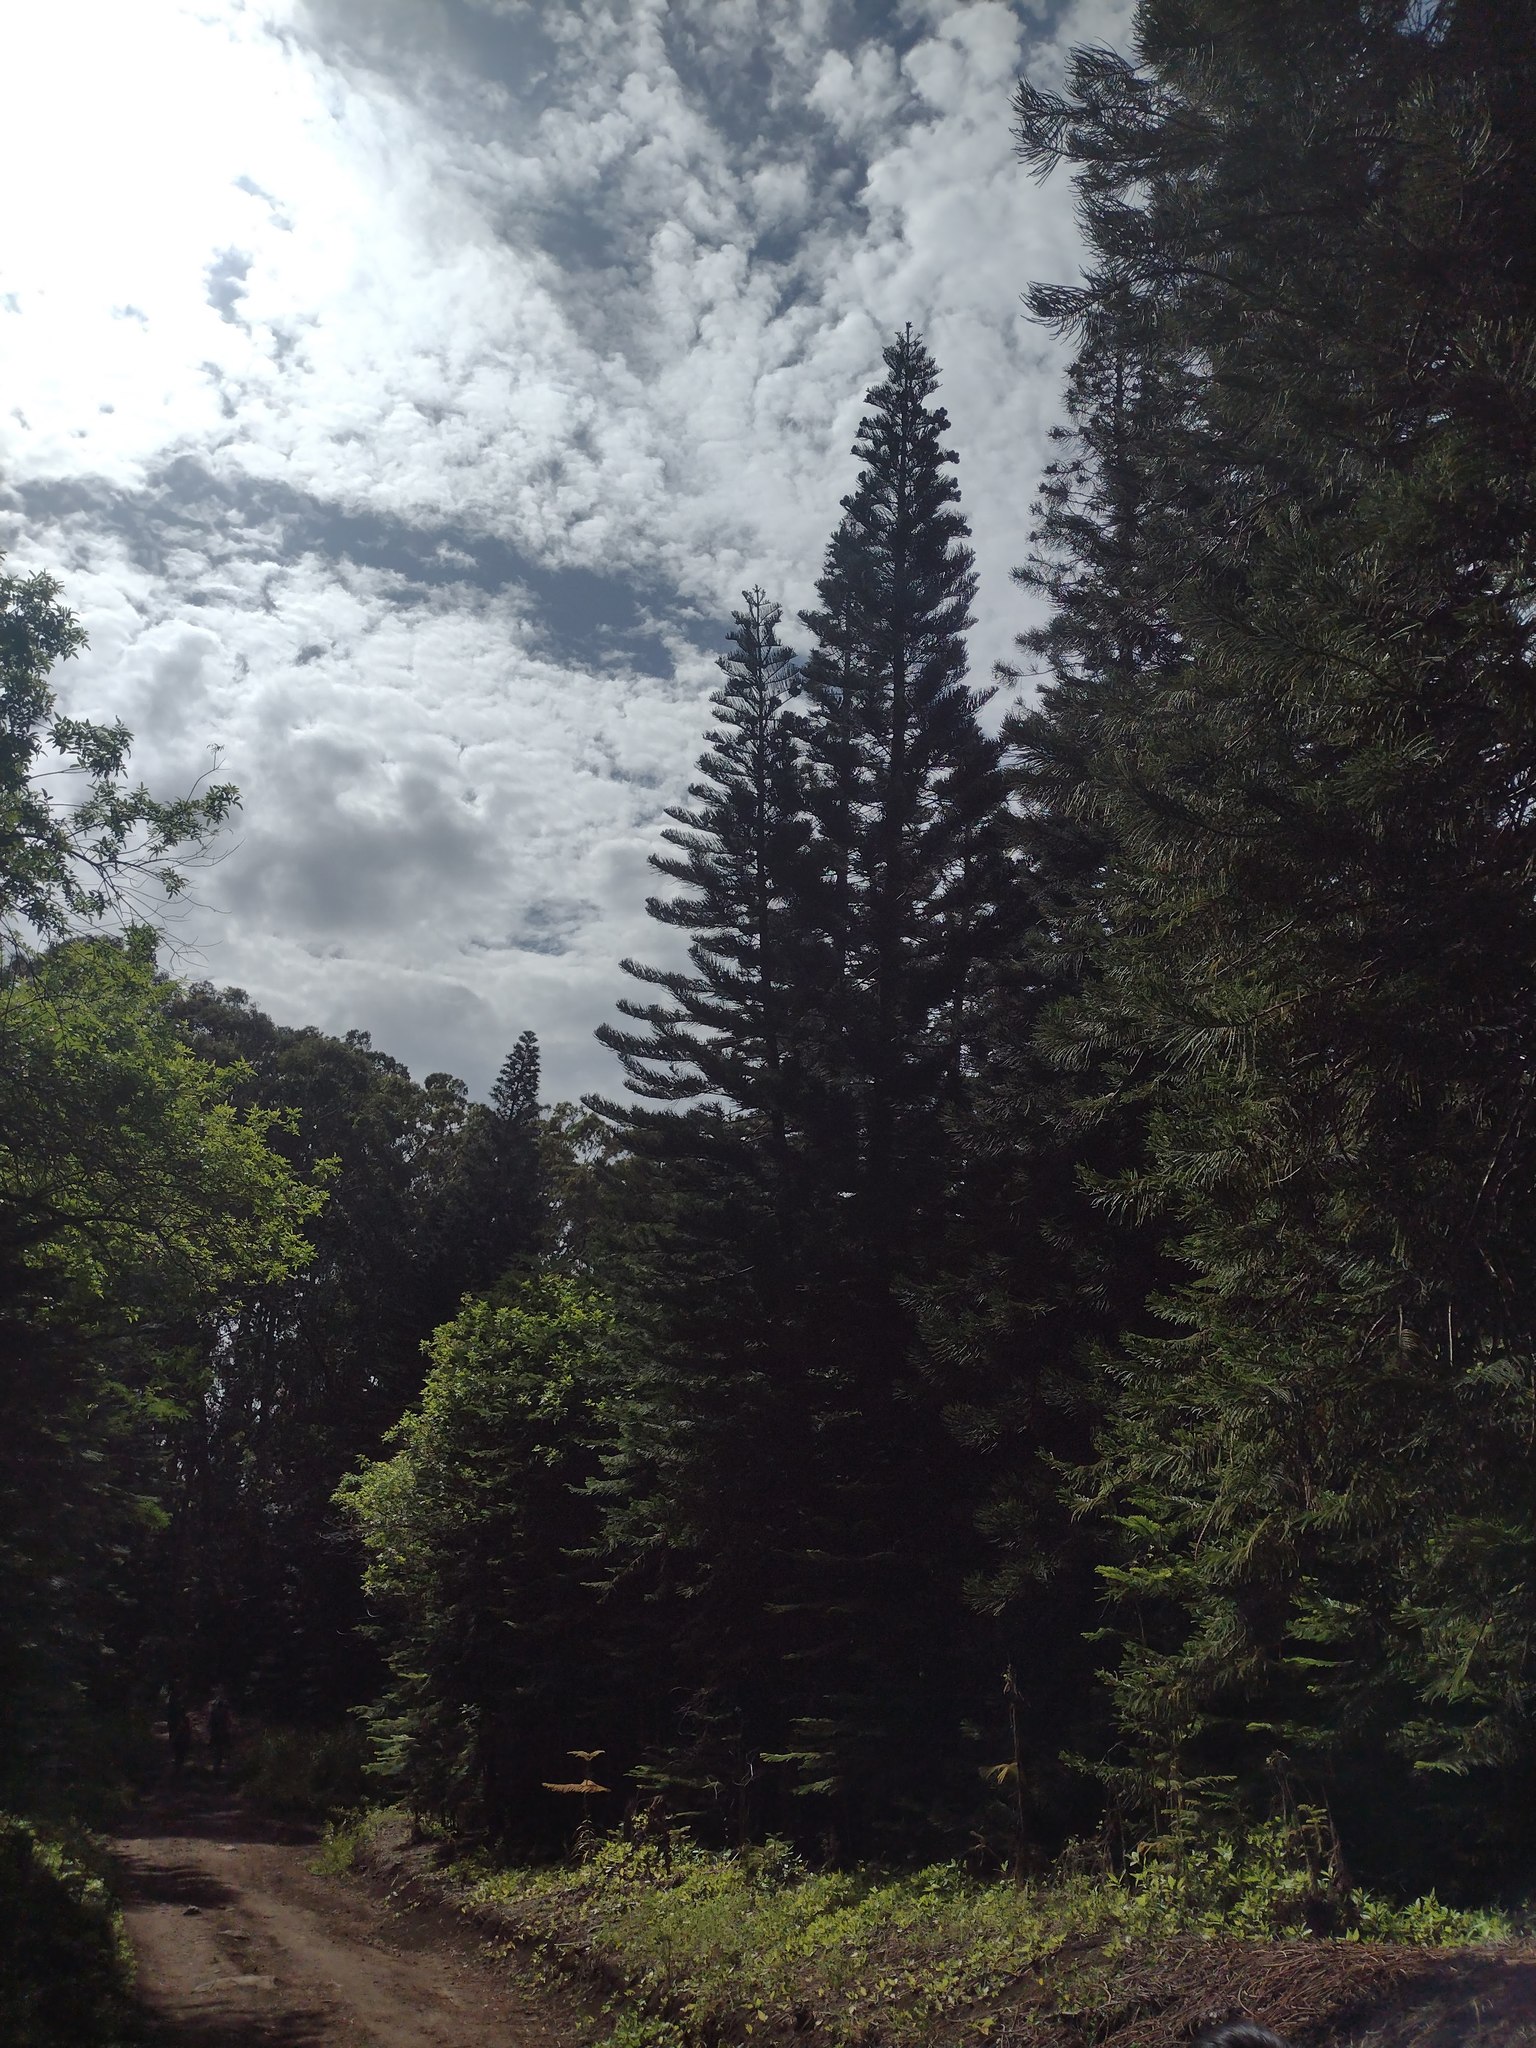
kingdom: Plantae
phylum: Tracheophyta
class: Pinopsida
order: Pinales
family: Araucariaceae
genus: Araucaria
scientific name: Araucaria columnaris
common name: Coral reef araucaria
